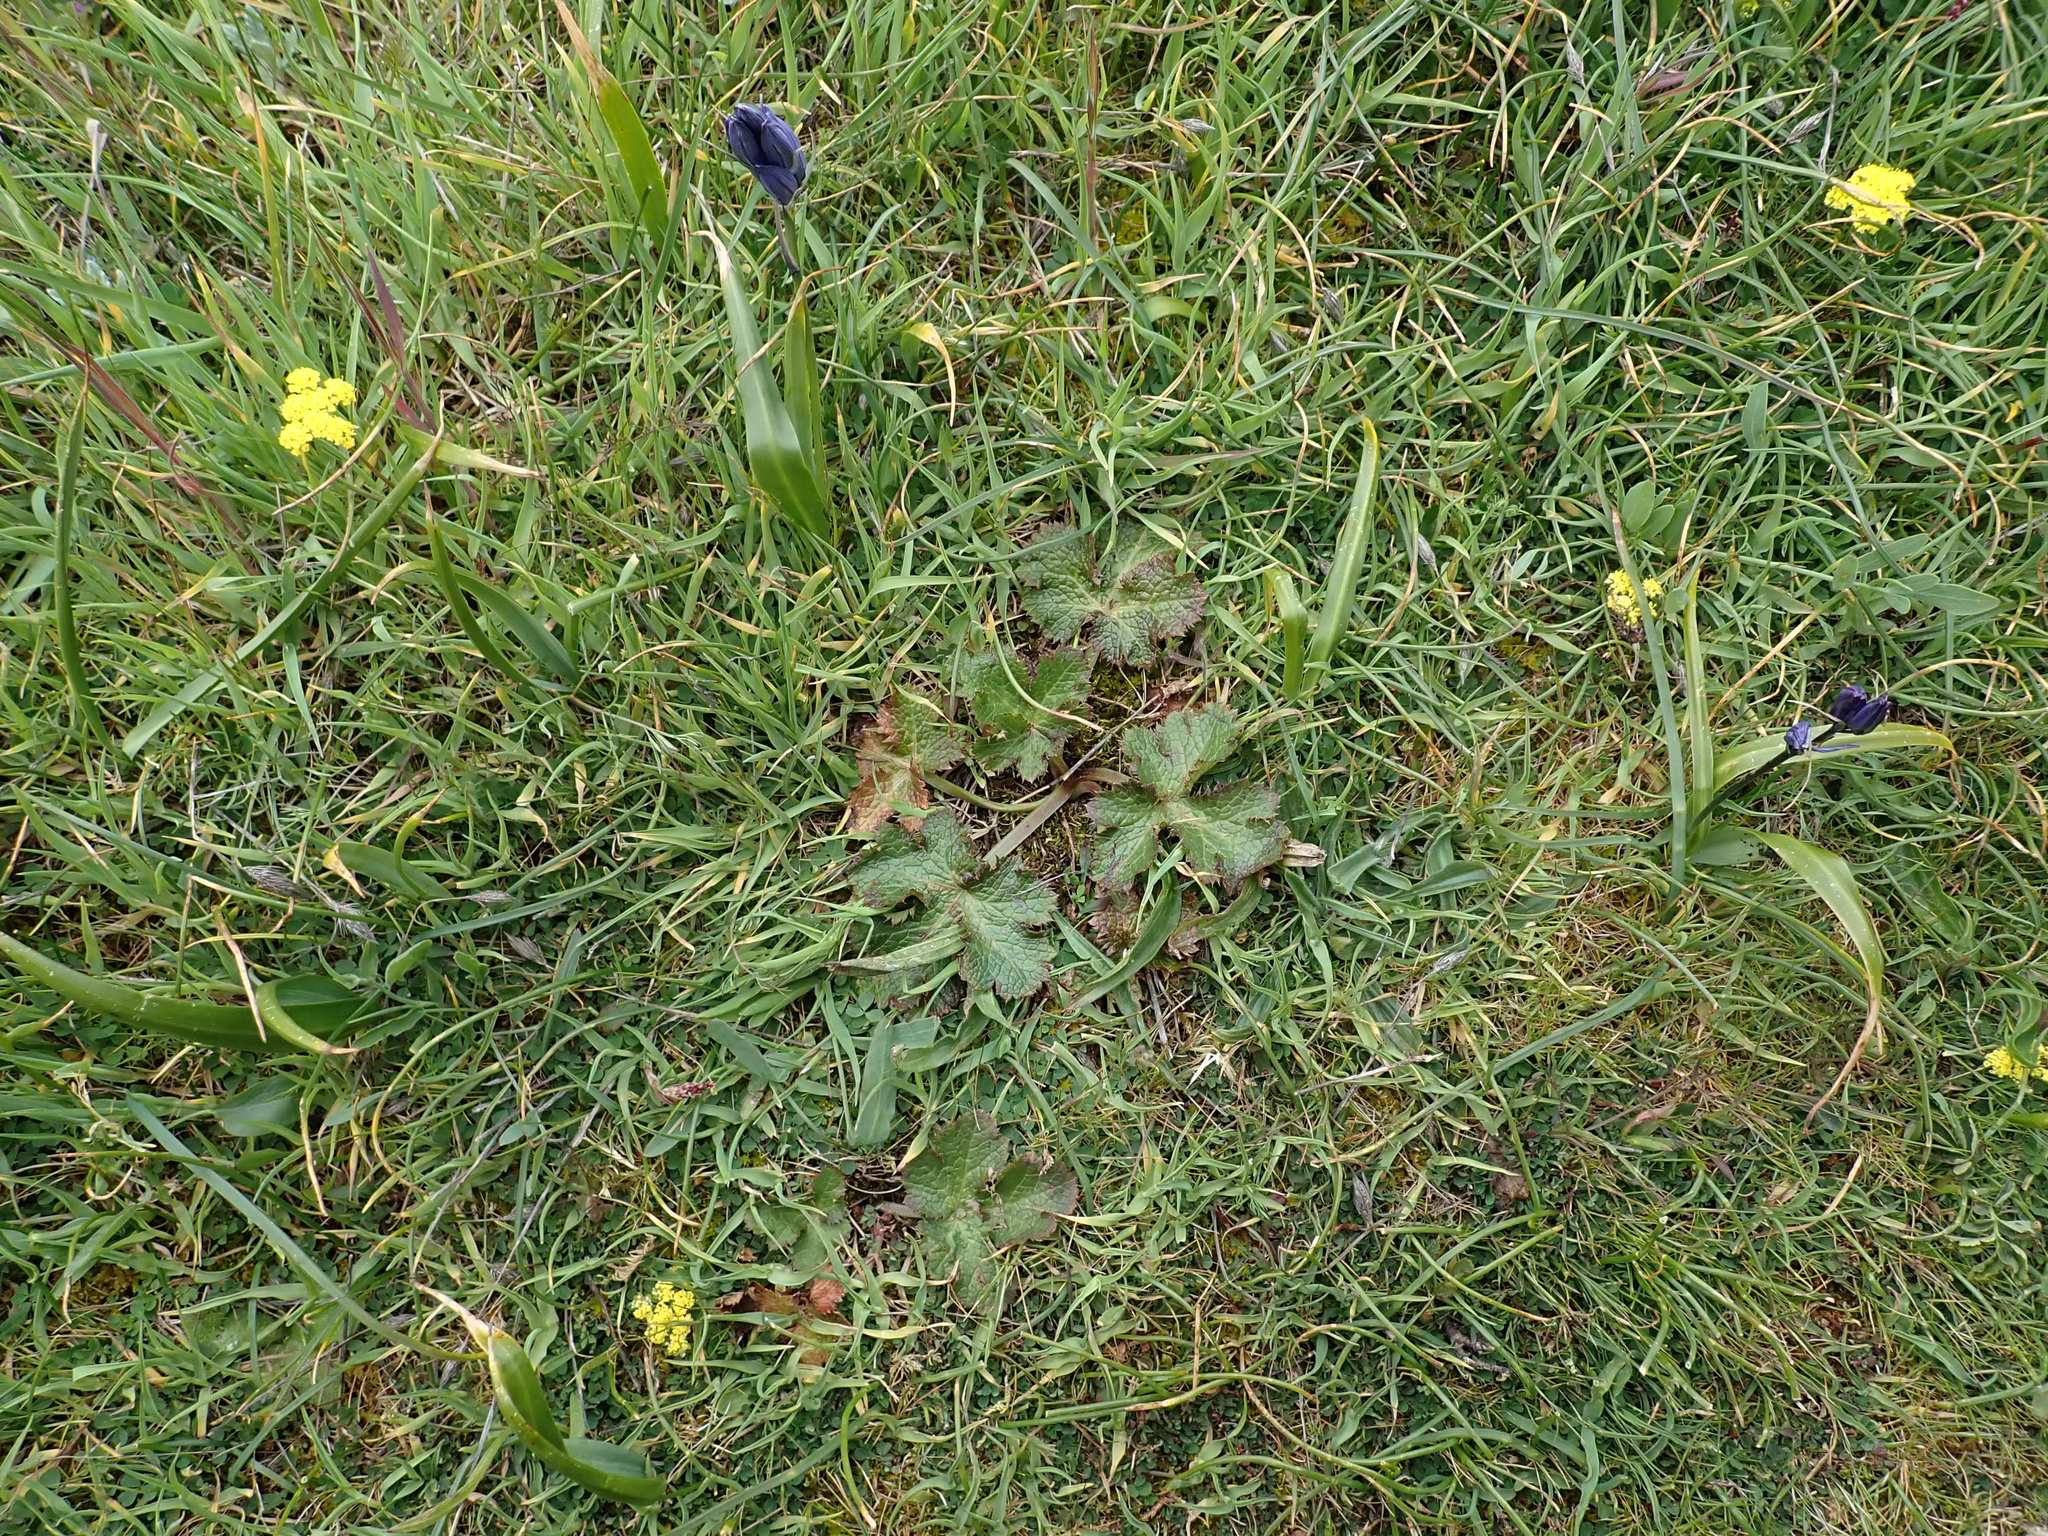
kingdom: Plantae
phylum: Tracheophyta
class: Magnoliopsida
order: Apiales
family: Apiaceae
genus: Sanicula
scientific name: Sanicula crassicaulis
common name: Western snakeroot
